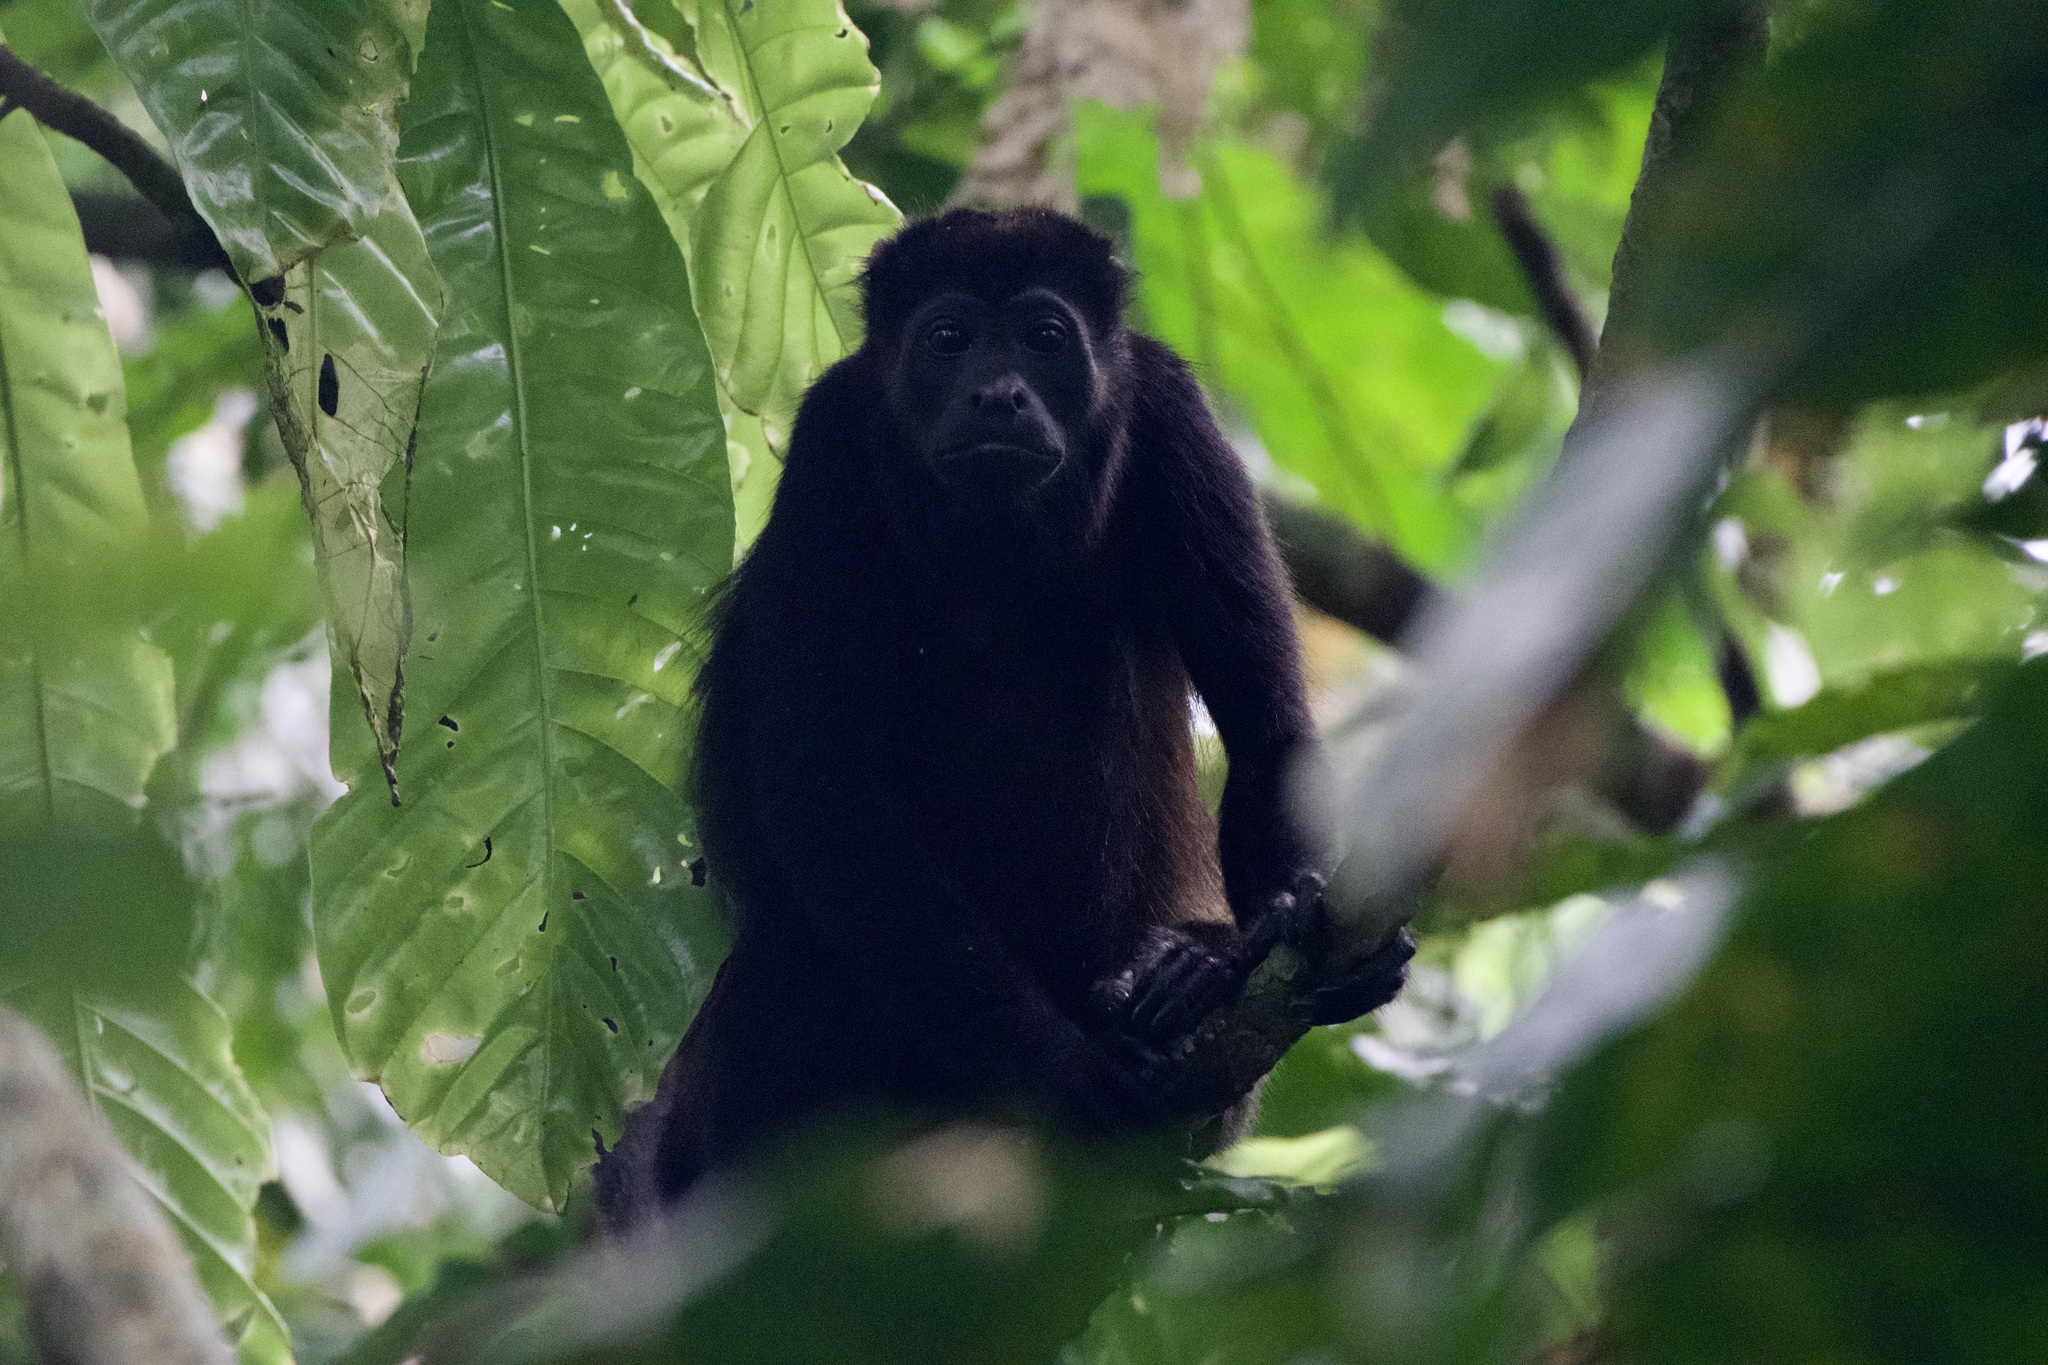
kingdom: Animalia
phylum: Chordata
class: Mammalia
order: Primates
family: Atelidae
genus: Alouatta
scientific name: Alouatta palliata
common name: Mantled howler
